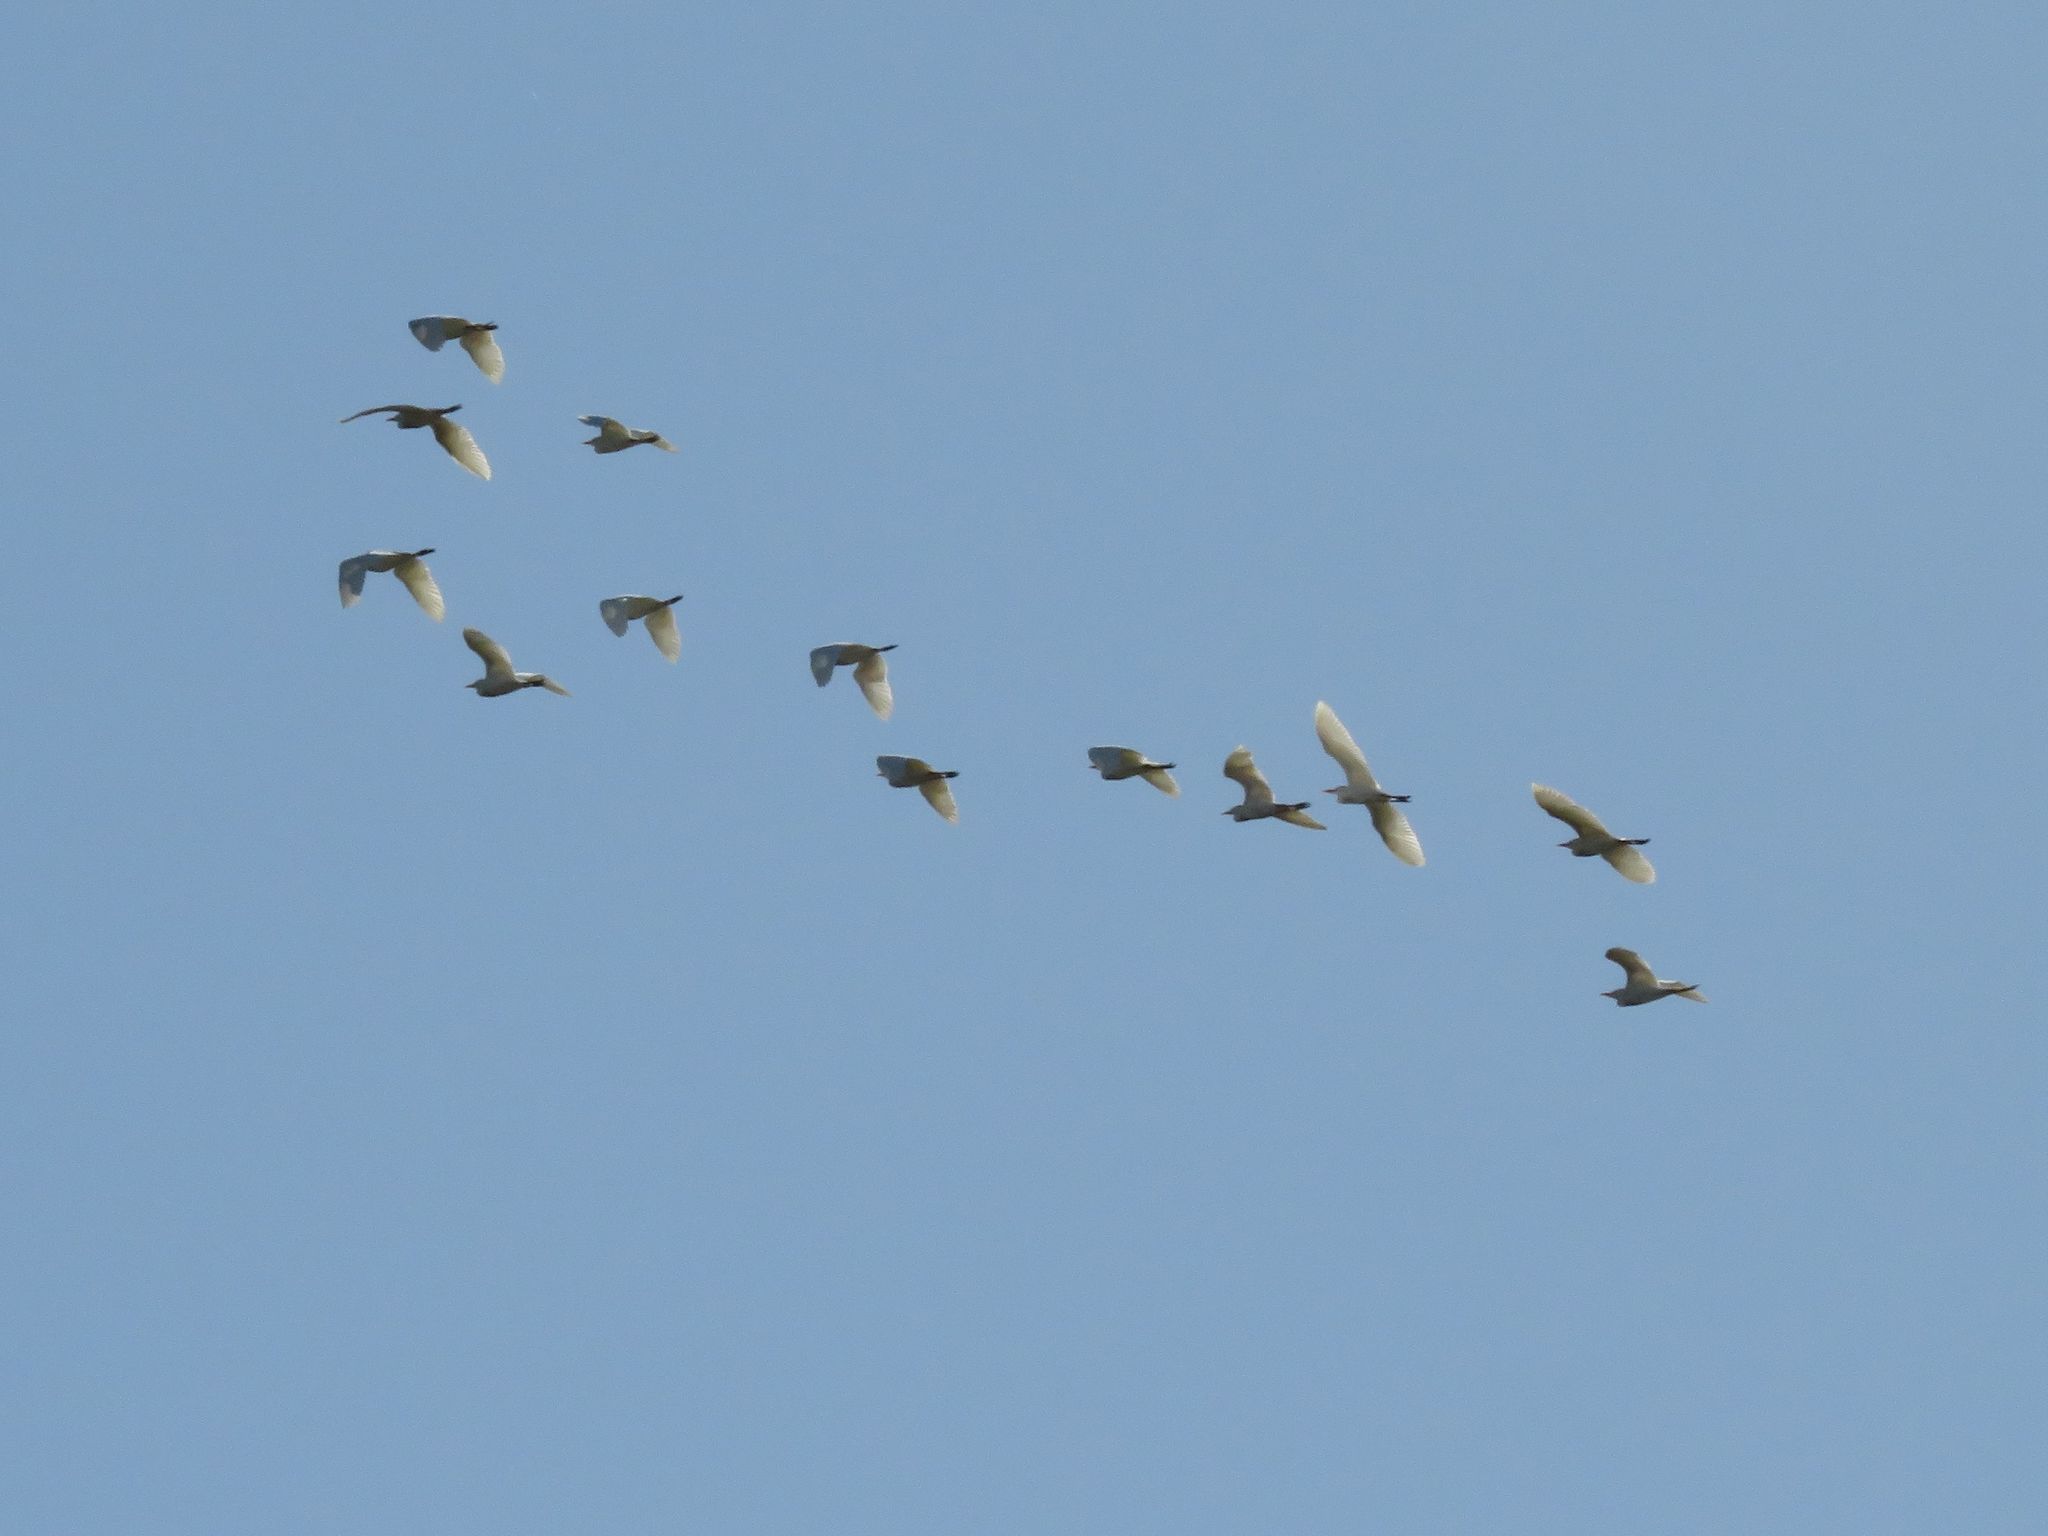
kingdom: Animalia
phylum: Chordata
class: Aves
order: Pelecaniformes
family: Ardeidae
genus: Bubulcus
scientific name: Bubulcus ibis
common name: Cattle egret
